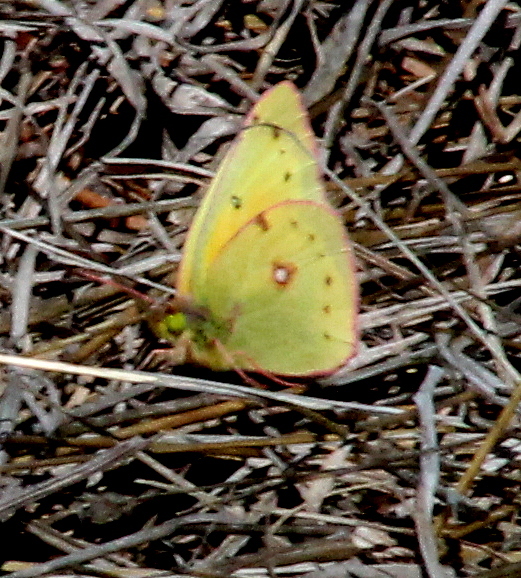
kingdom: Animalia
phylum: Arthropoda
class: Insecta
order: Lepidoptera
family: Pieridae
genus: Colias
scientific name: Colias eurytheme
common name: Alfalfa butterfly
